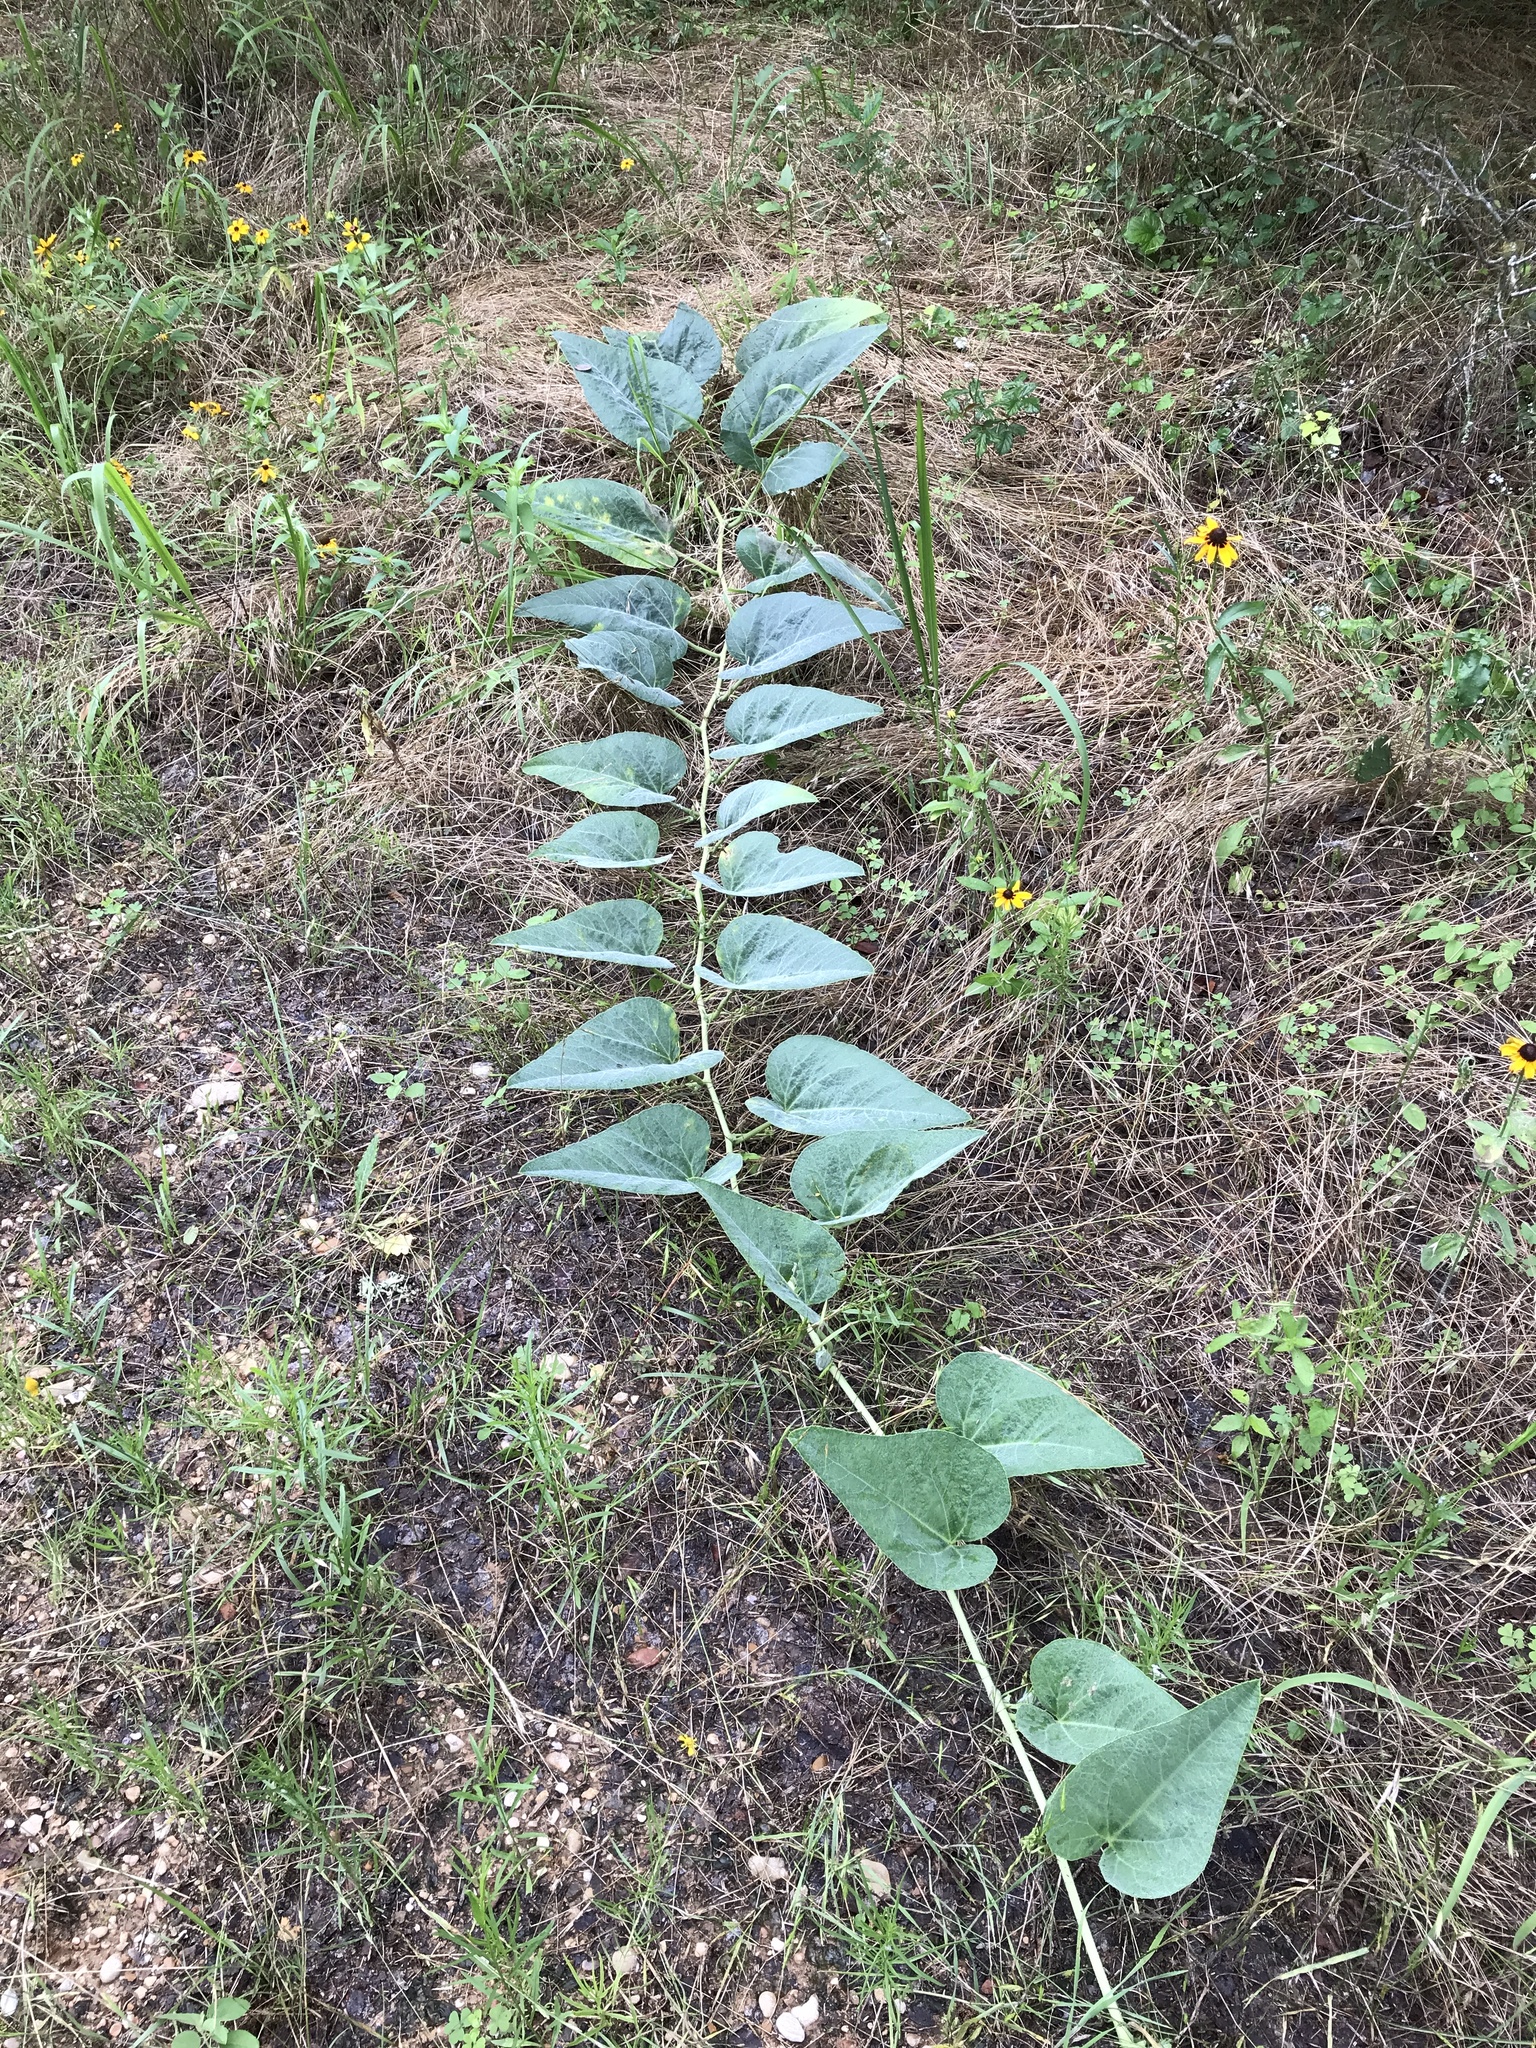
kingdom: Plantae
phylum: Tracheophyta
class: Magnoliopsida
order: Cucurbitales
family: Cucurbitaceae
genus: Cucurbita
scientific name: Cucurbita foetidissima
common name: Buffalo gourd
